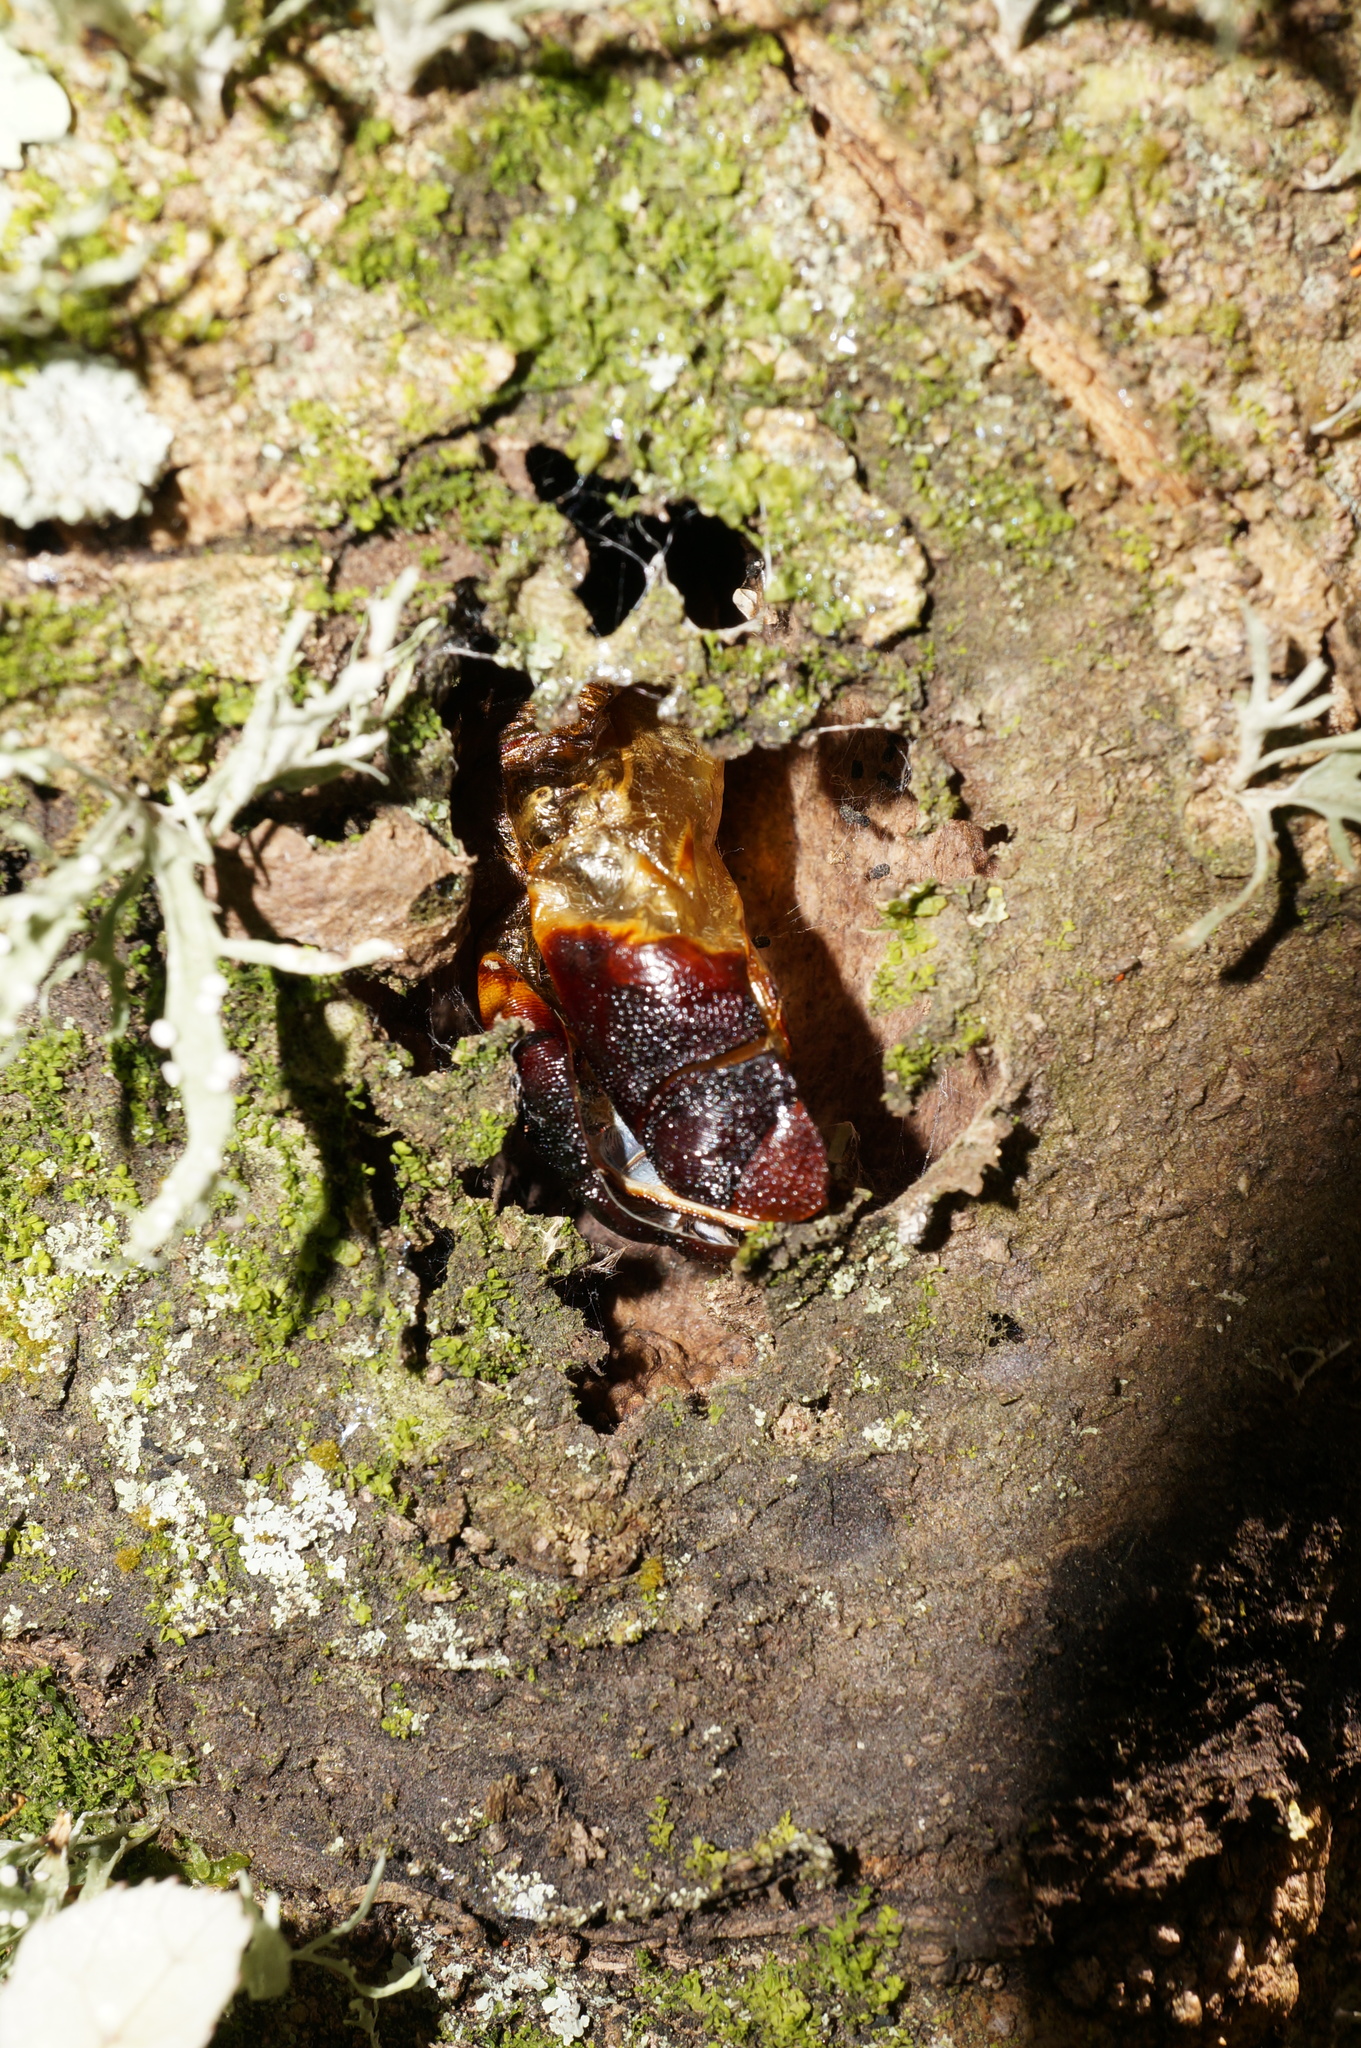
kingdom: Animalia
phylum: Arthropoda
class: Insecta
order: Lepidoptera
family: Hepialidae
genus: Aenetus
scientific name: Aenetus virescens
